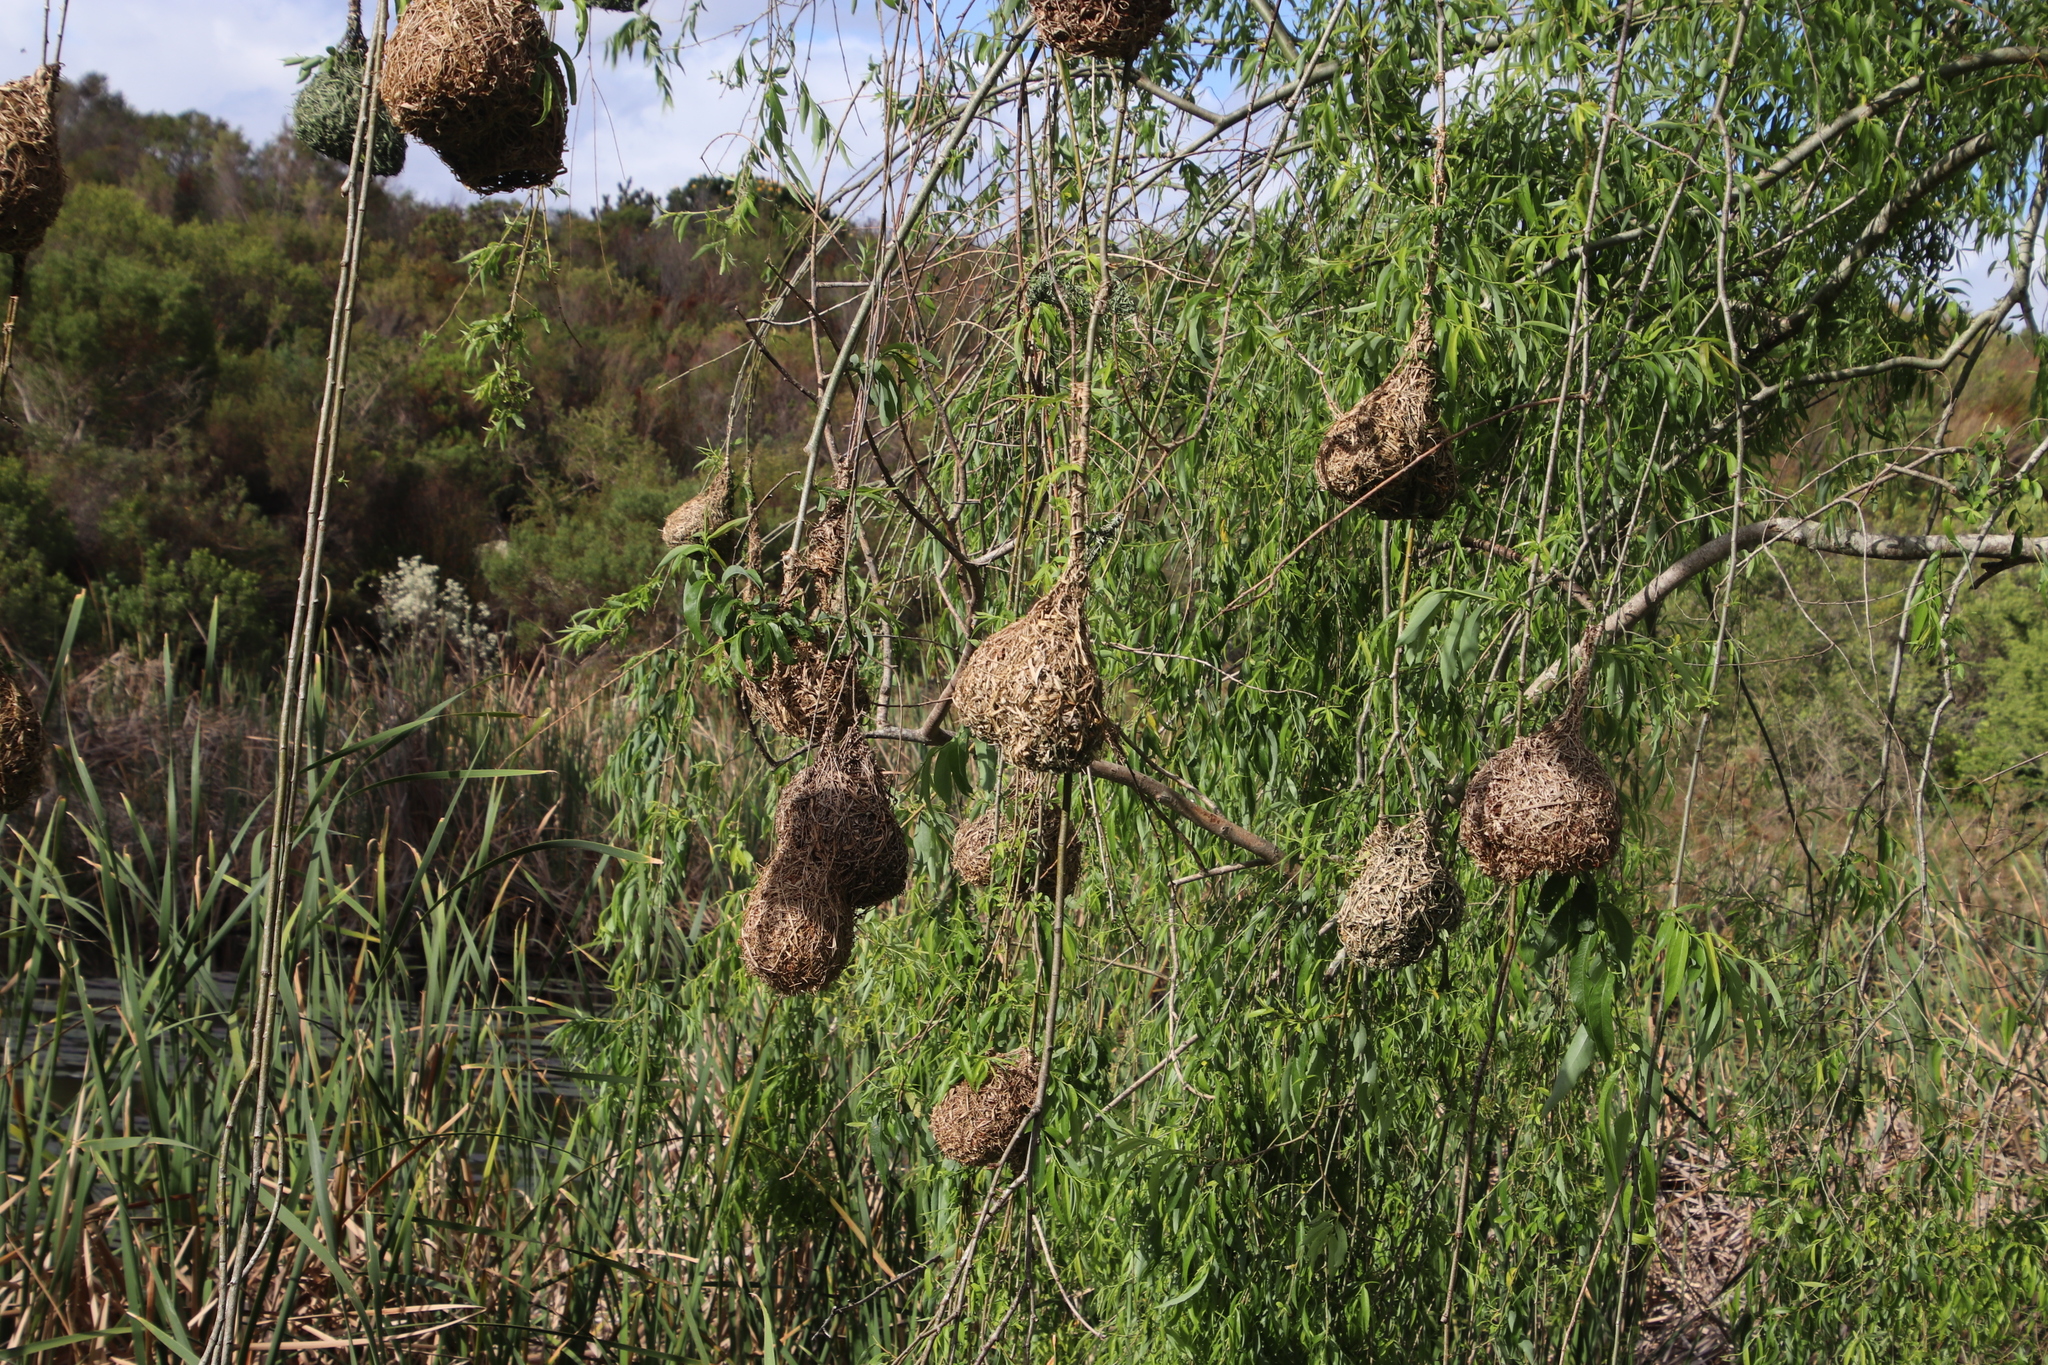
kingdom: Animalia
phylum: Chordata
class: Aves
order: Passeriformes
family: Ploceidae
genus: Ploceus
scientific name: Ploceus capensis
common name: Cape weaver
